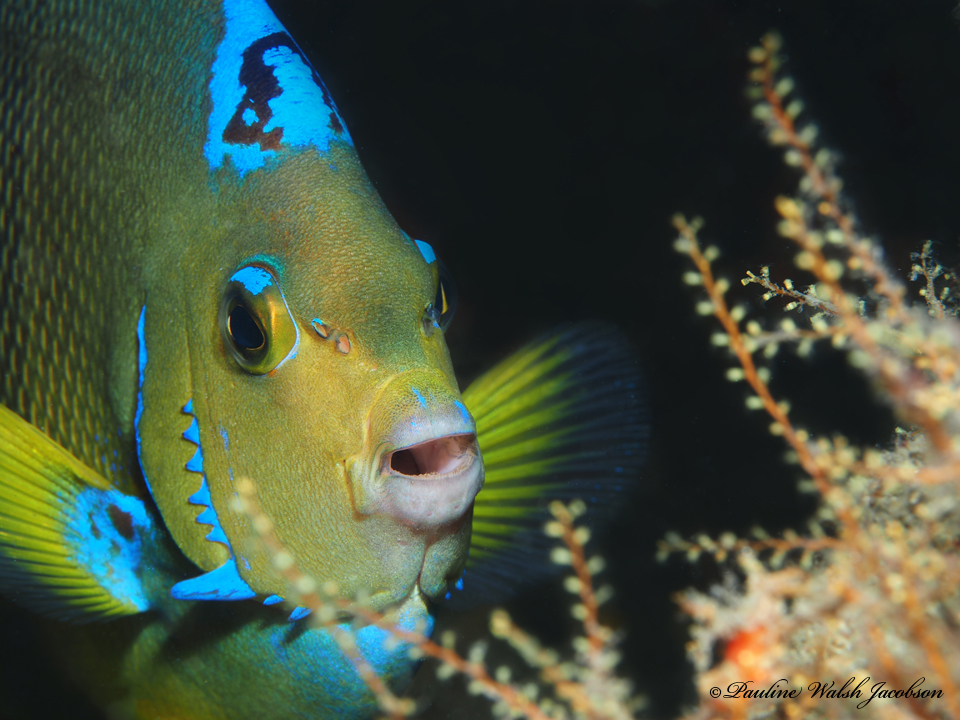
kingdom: Animalia
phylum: Chordata
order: Perciformes
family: Pomacanthidae
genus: Holacanthus
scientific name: Holacanthus ciliaris
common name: Queen angelfish
